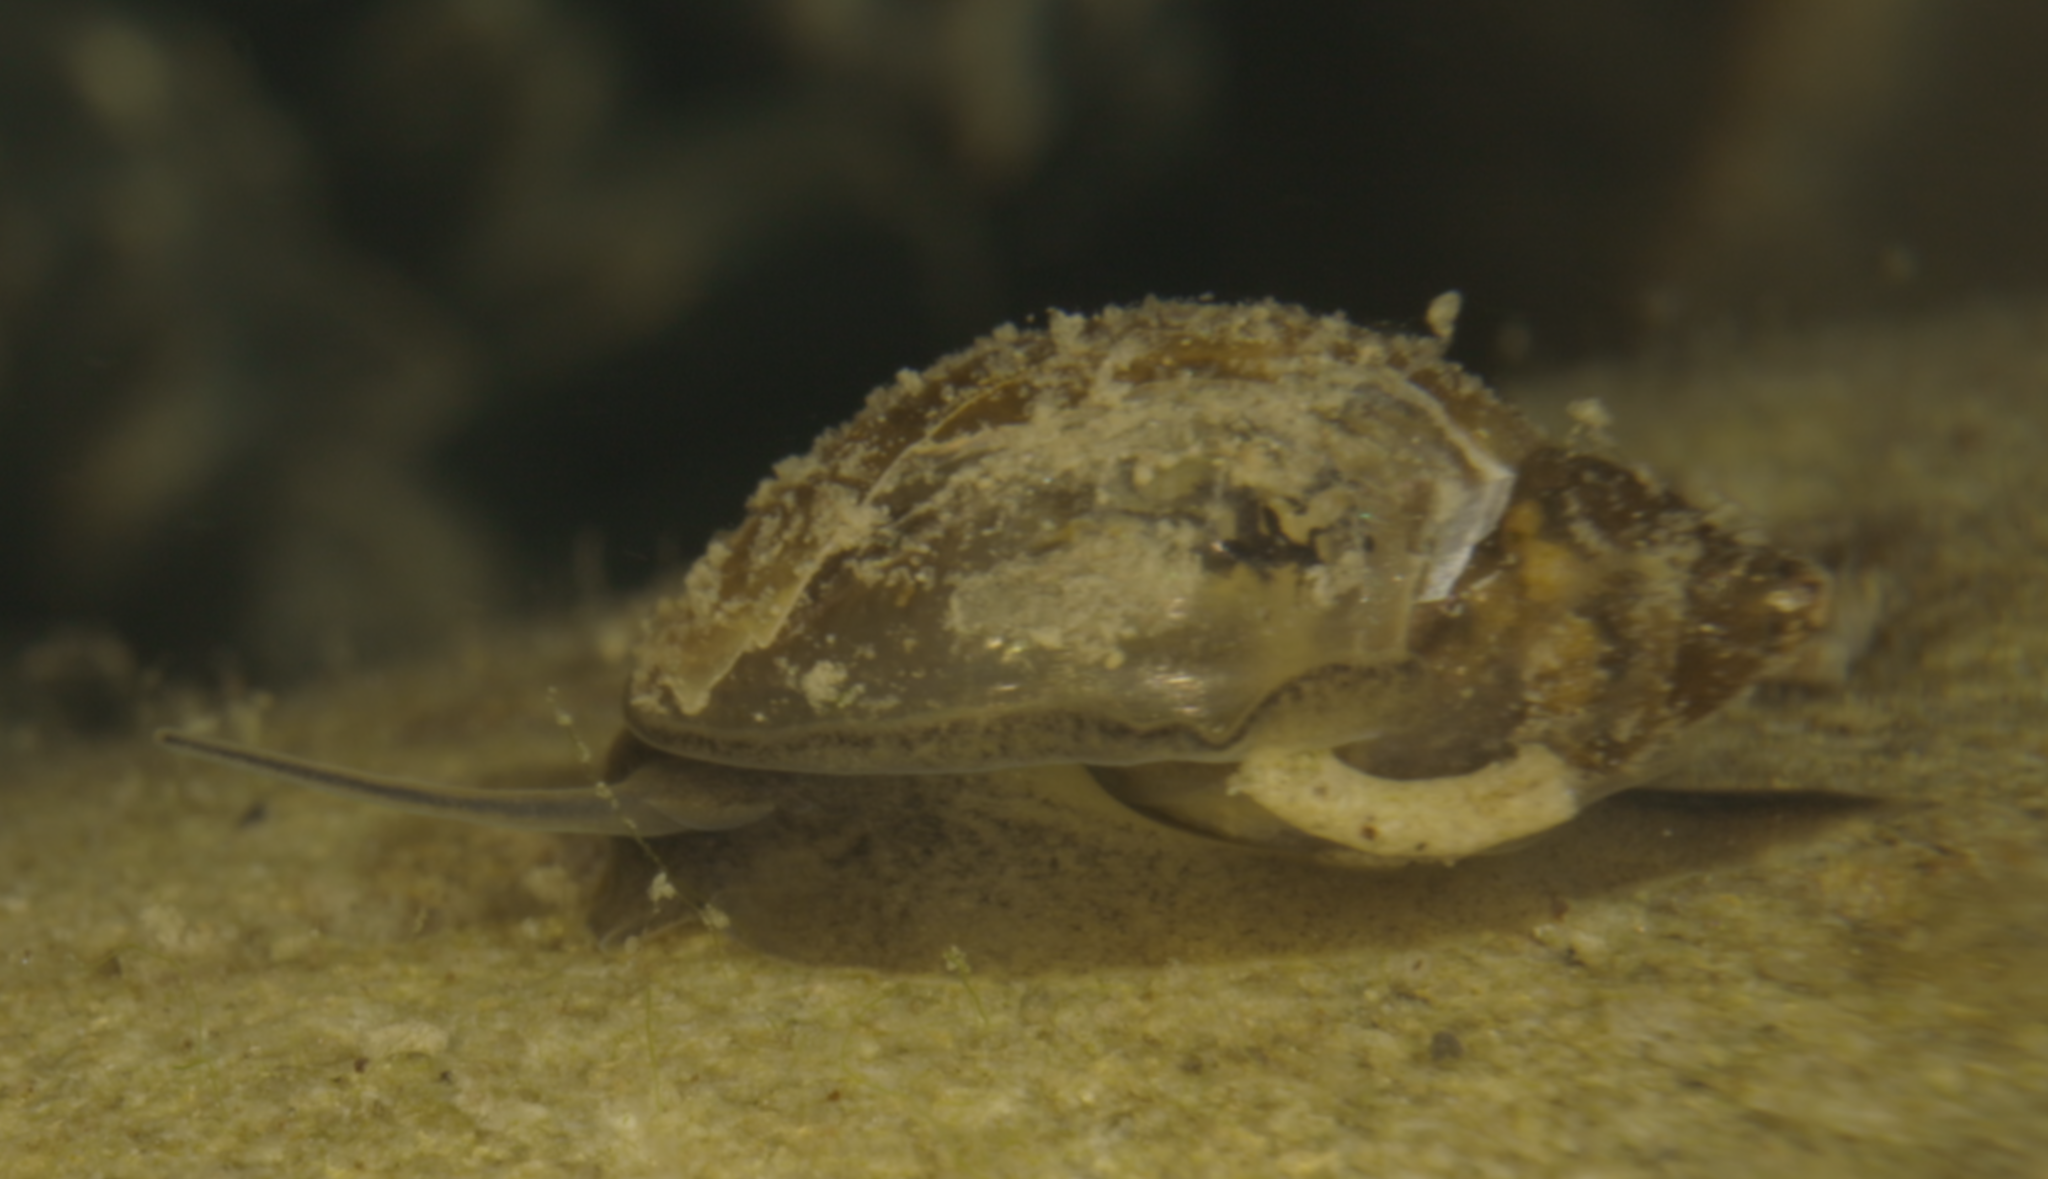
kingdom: Animalia
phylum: Mollusca
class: Gastropoda
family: Physidae
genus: Physella
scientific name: Physella acuta
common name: European physa
